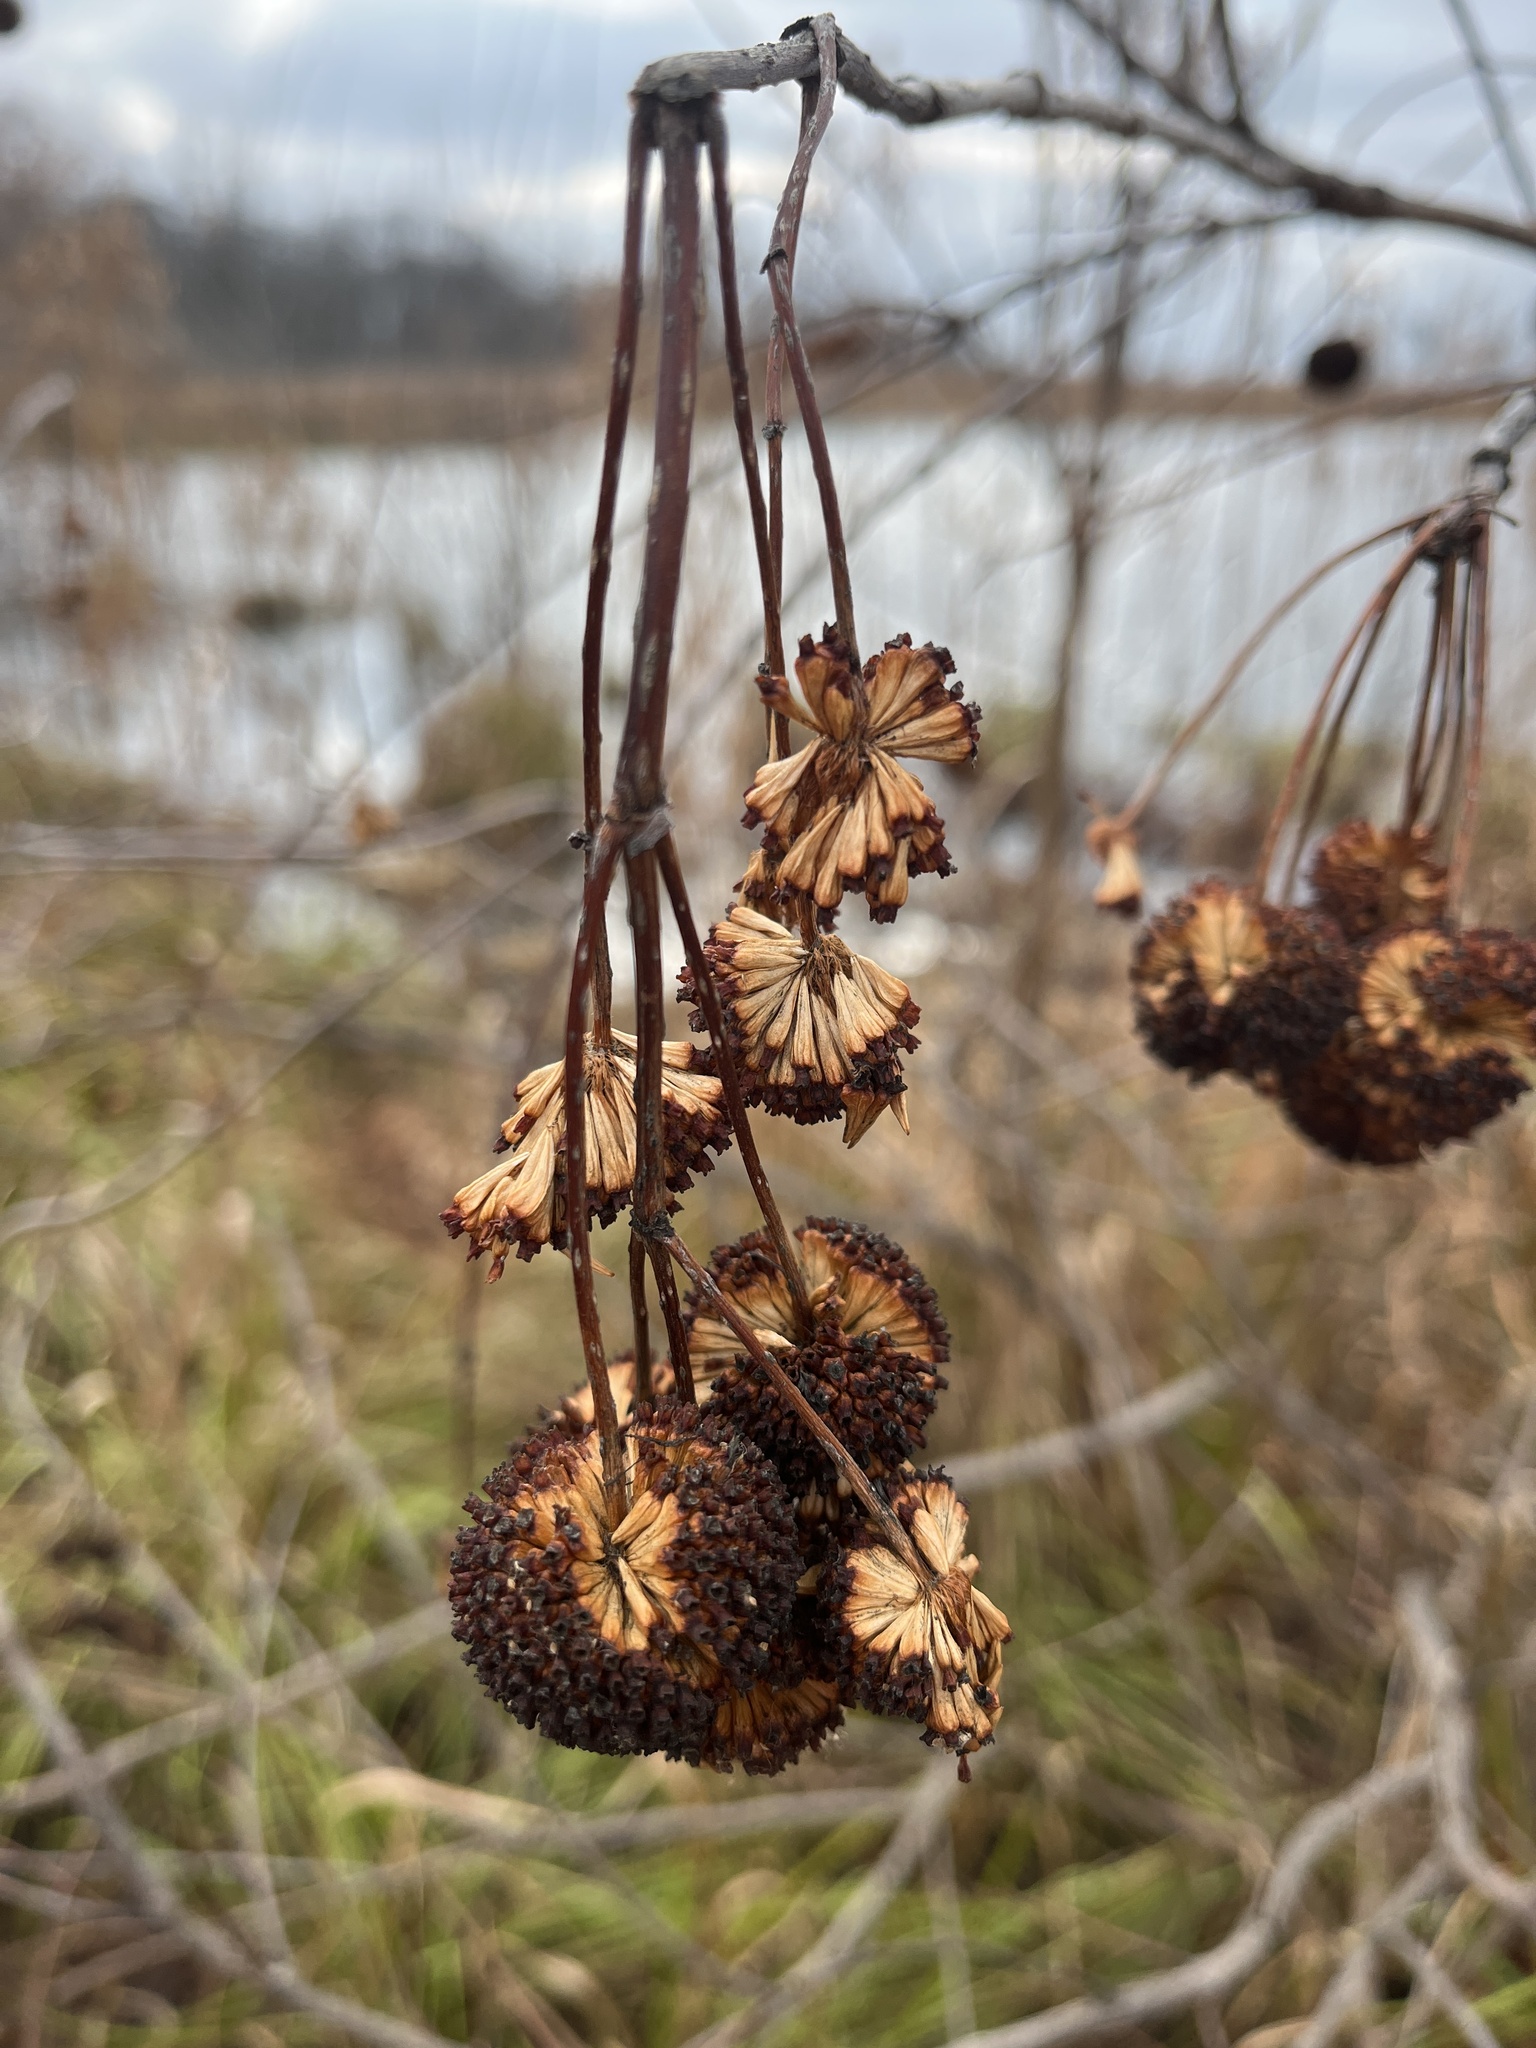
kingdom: Plantae
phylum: Tracheophyta
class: Magnoliopsida
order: Gentianales
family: Rubiaceae
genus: Cephalanthus
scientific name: Cephalanthus occidentalis
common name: Button-willow
